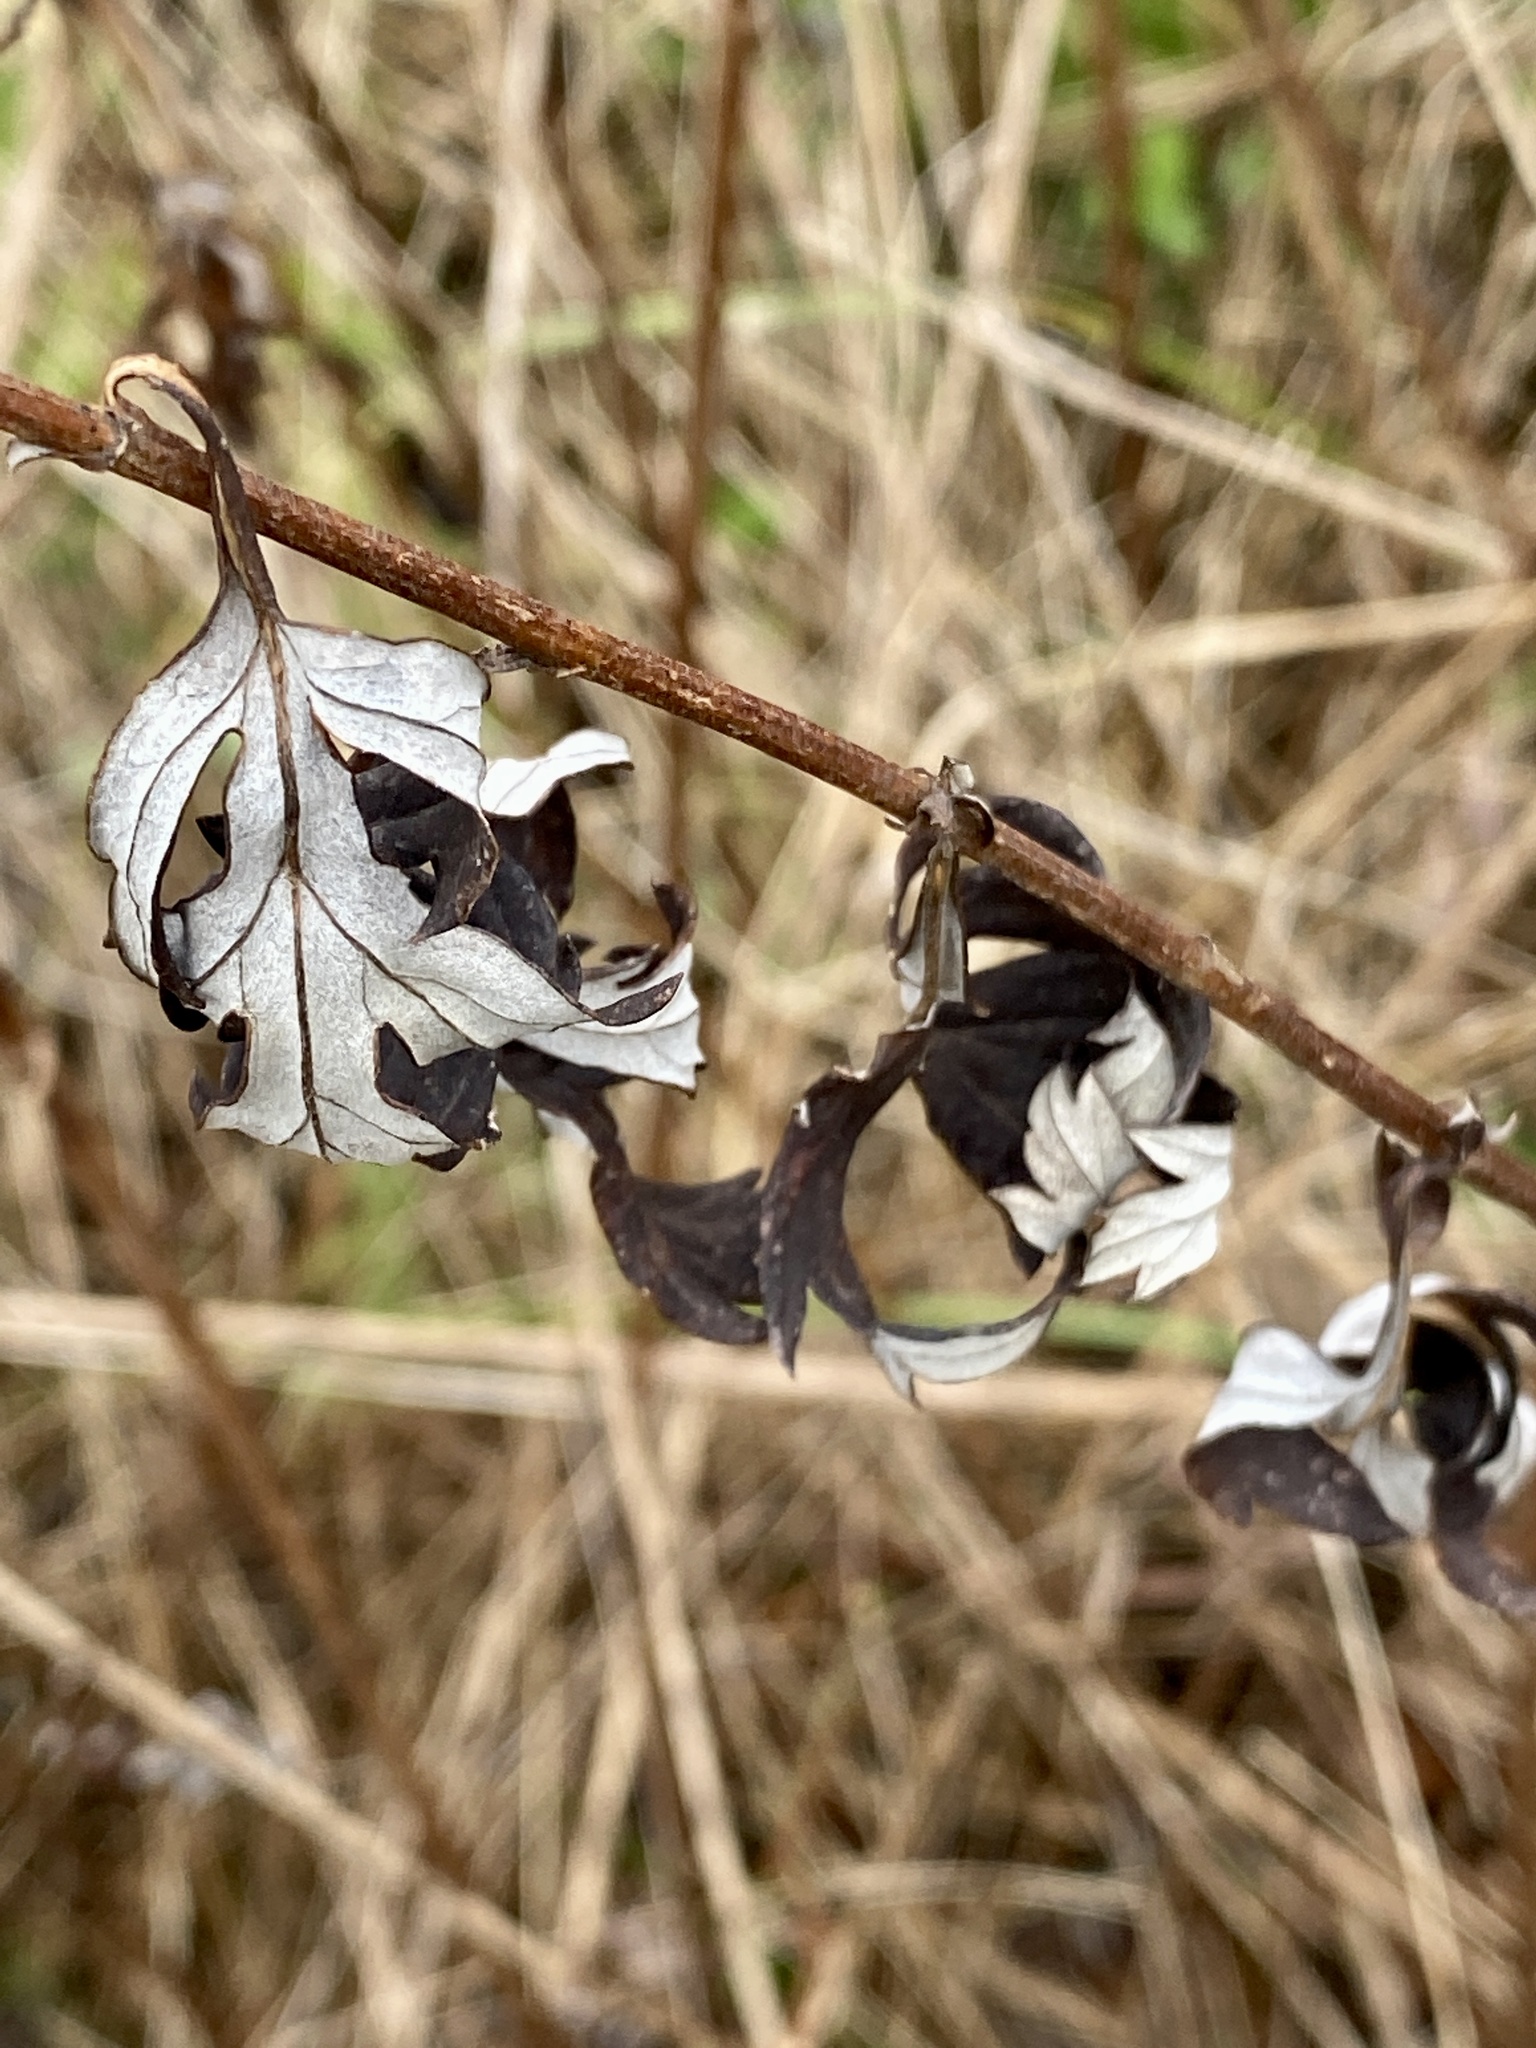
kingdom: Plantae
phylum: Tracheophyta
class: Magnoliopsida
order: Asterales
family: Asteraceae
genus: Artemisia
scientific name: Artemisia vulgaris
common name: Mugwort
